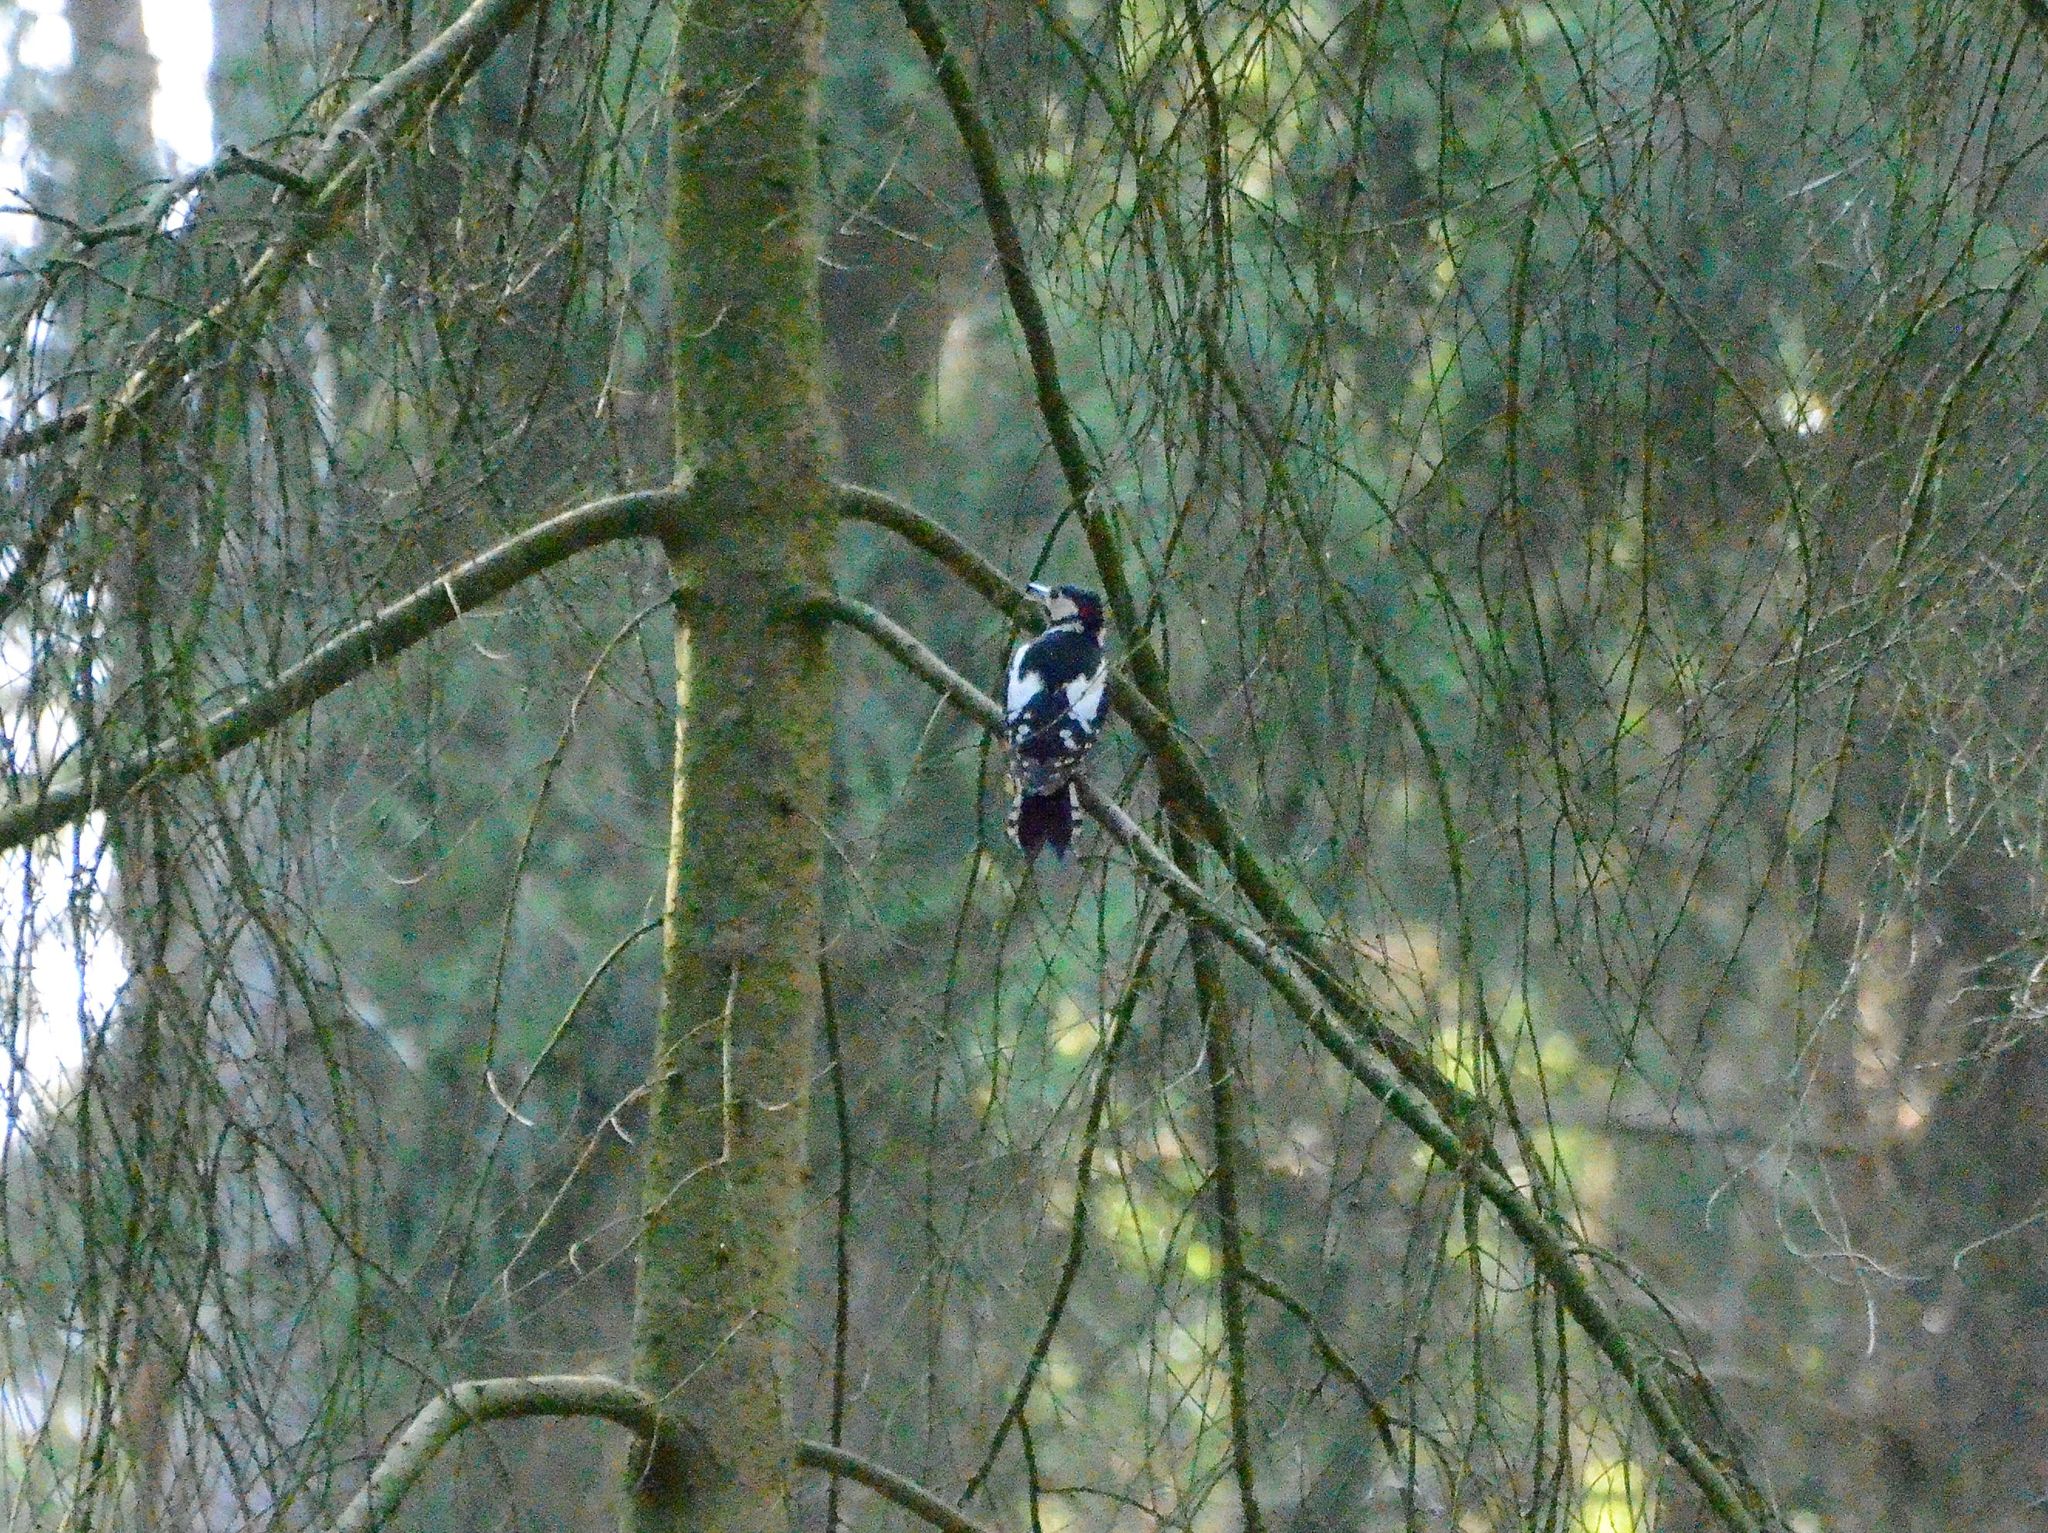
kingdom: Animalia
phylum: Chordata
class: Aves
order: Piciformes
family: Picidae
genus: Dendrocopos
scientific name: Dendrocopos major
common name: Great spotted woodpecker
